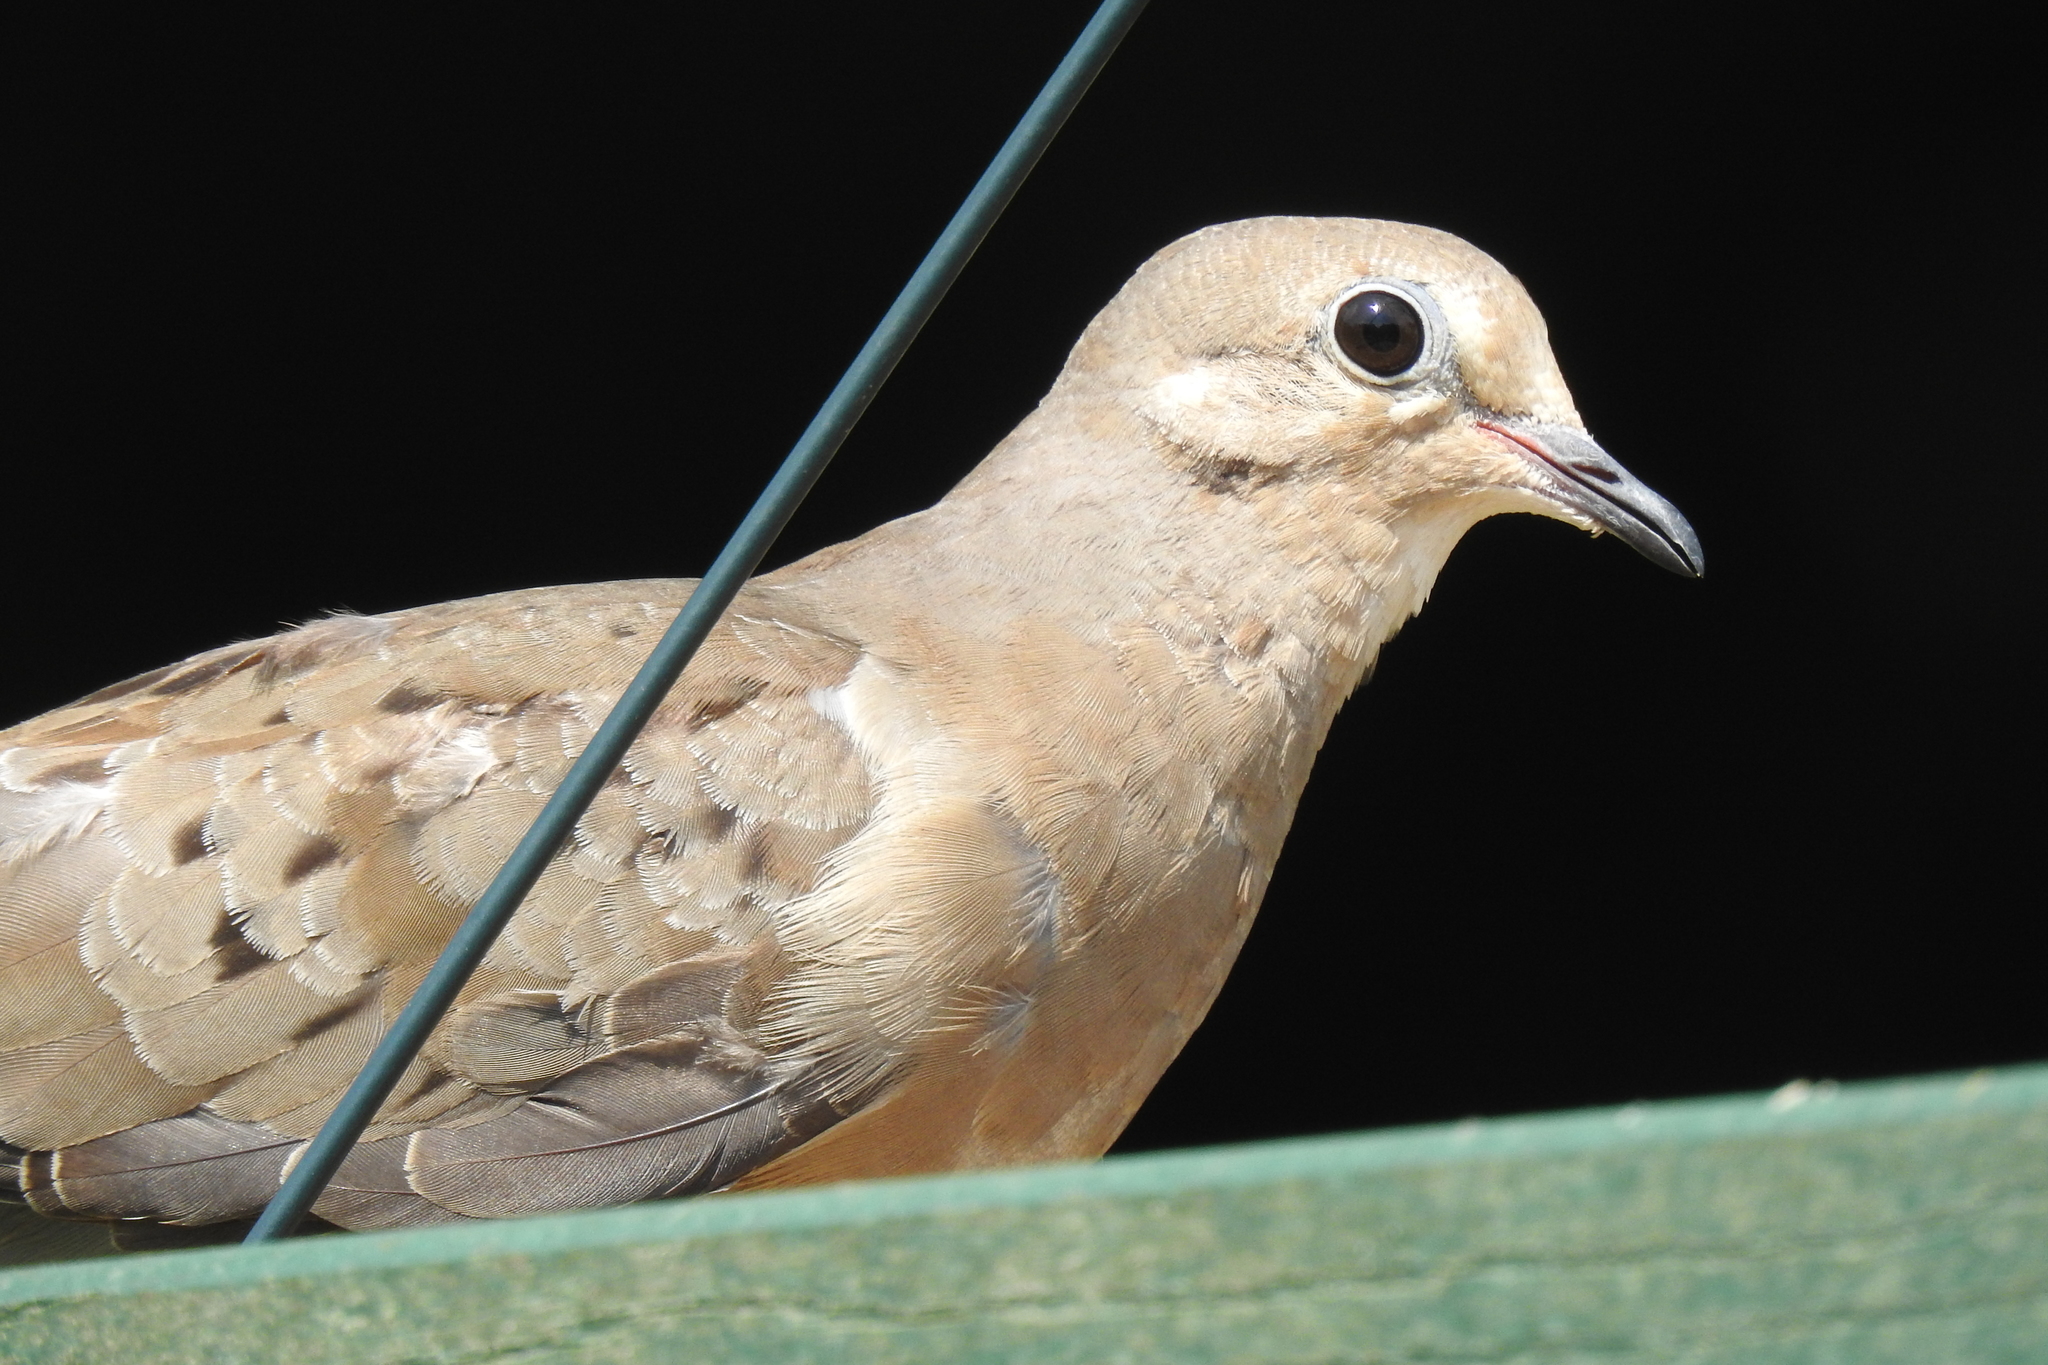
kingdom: Animalia
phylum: Chordata
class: Aves
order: Columbiformes
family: Columbidae
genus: Zenaida
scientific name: Zenaida macroura
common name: Mourning dove
